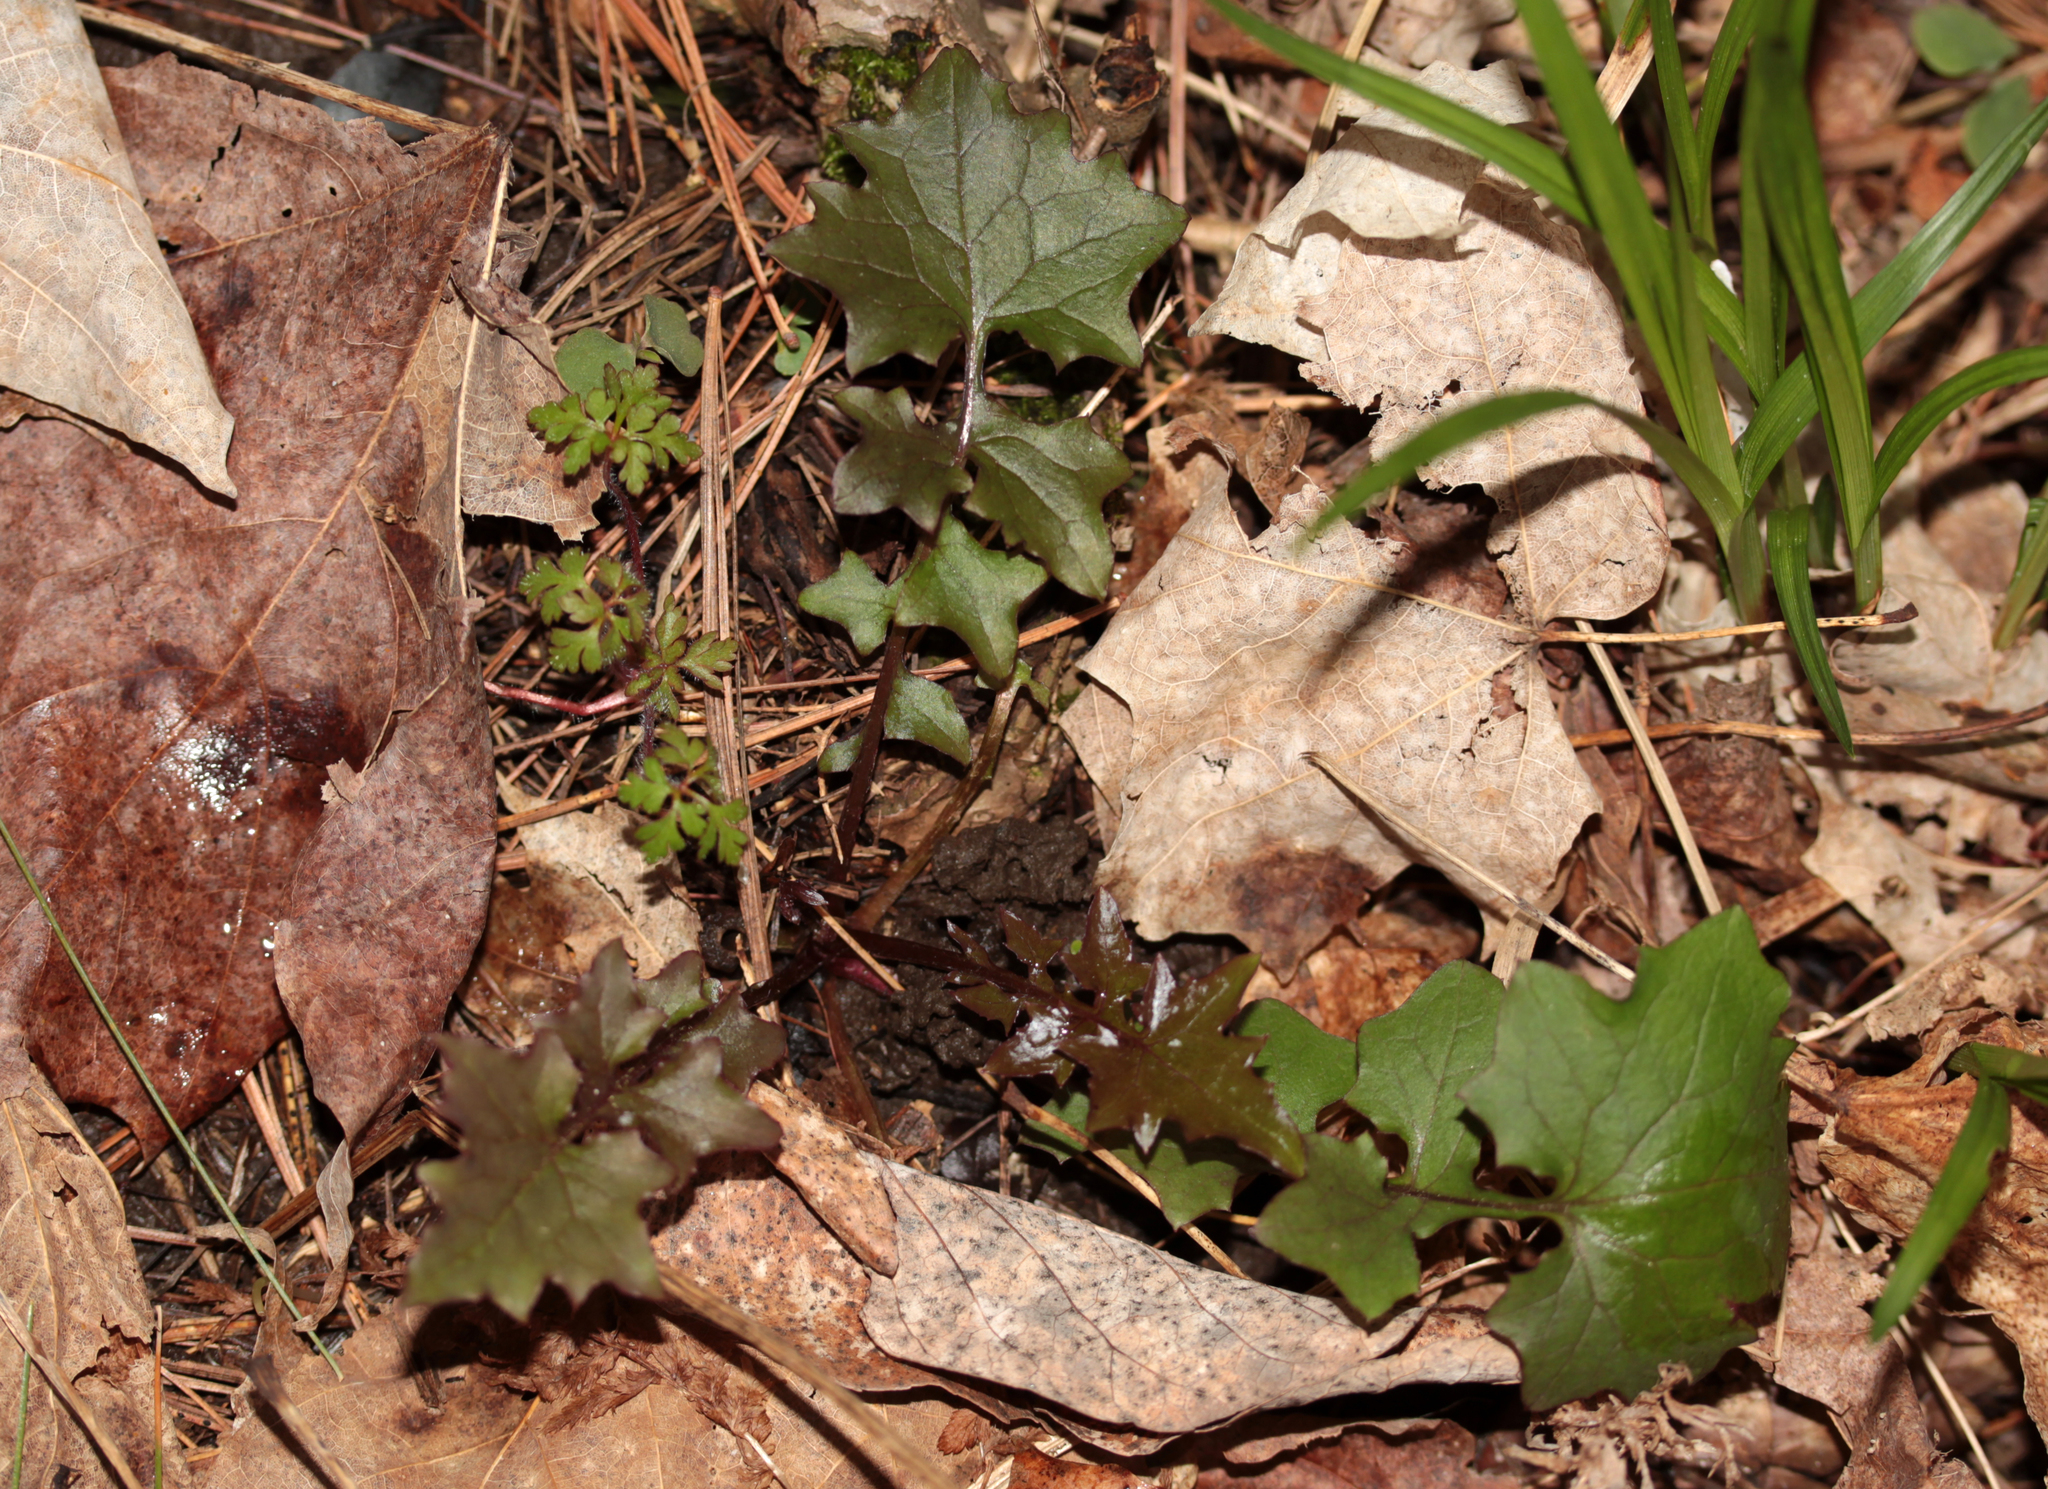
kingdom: Plantae
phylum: Tracheophyta
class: Magnoliopsida
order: Asterales
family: Asteraceae
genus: Mycelis
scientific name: Mycelis muralis
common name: Wall lettuce
